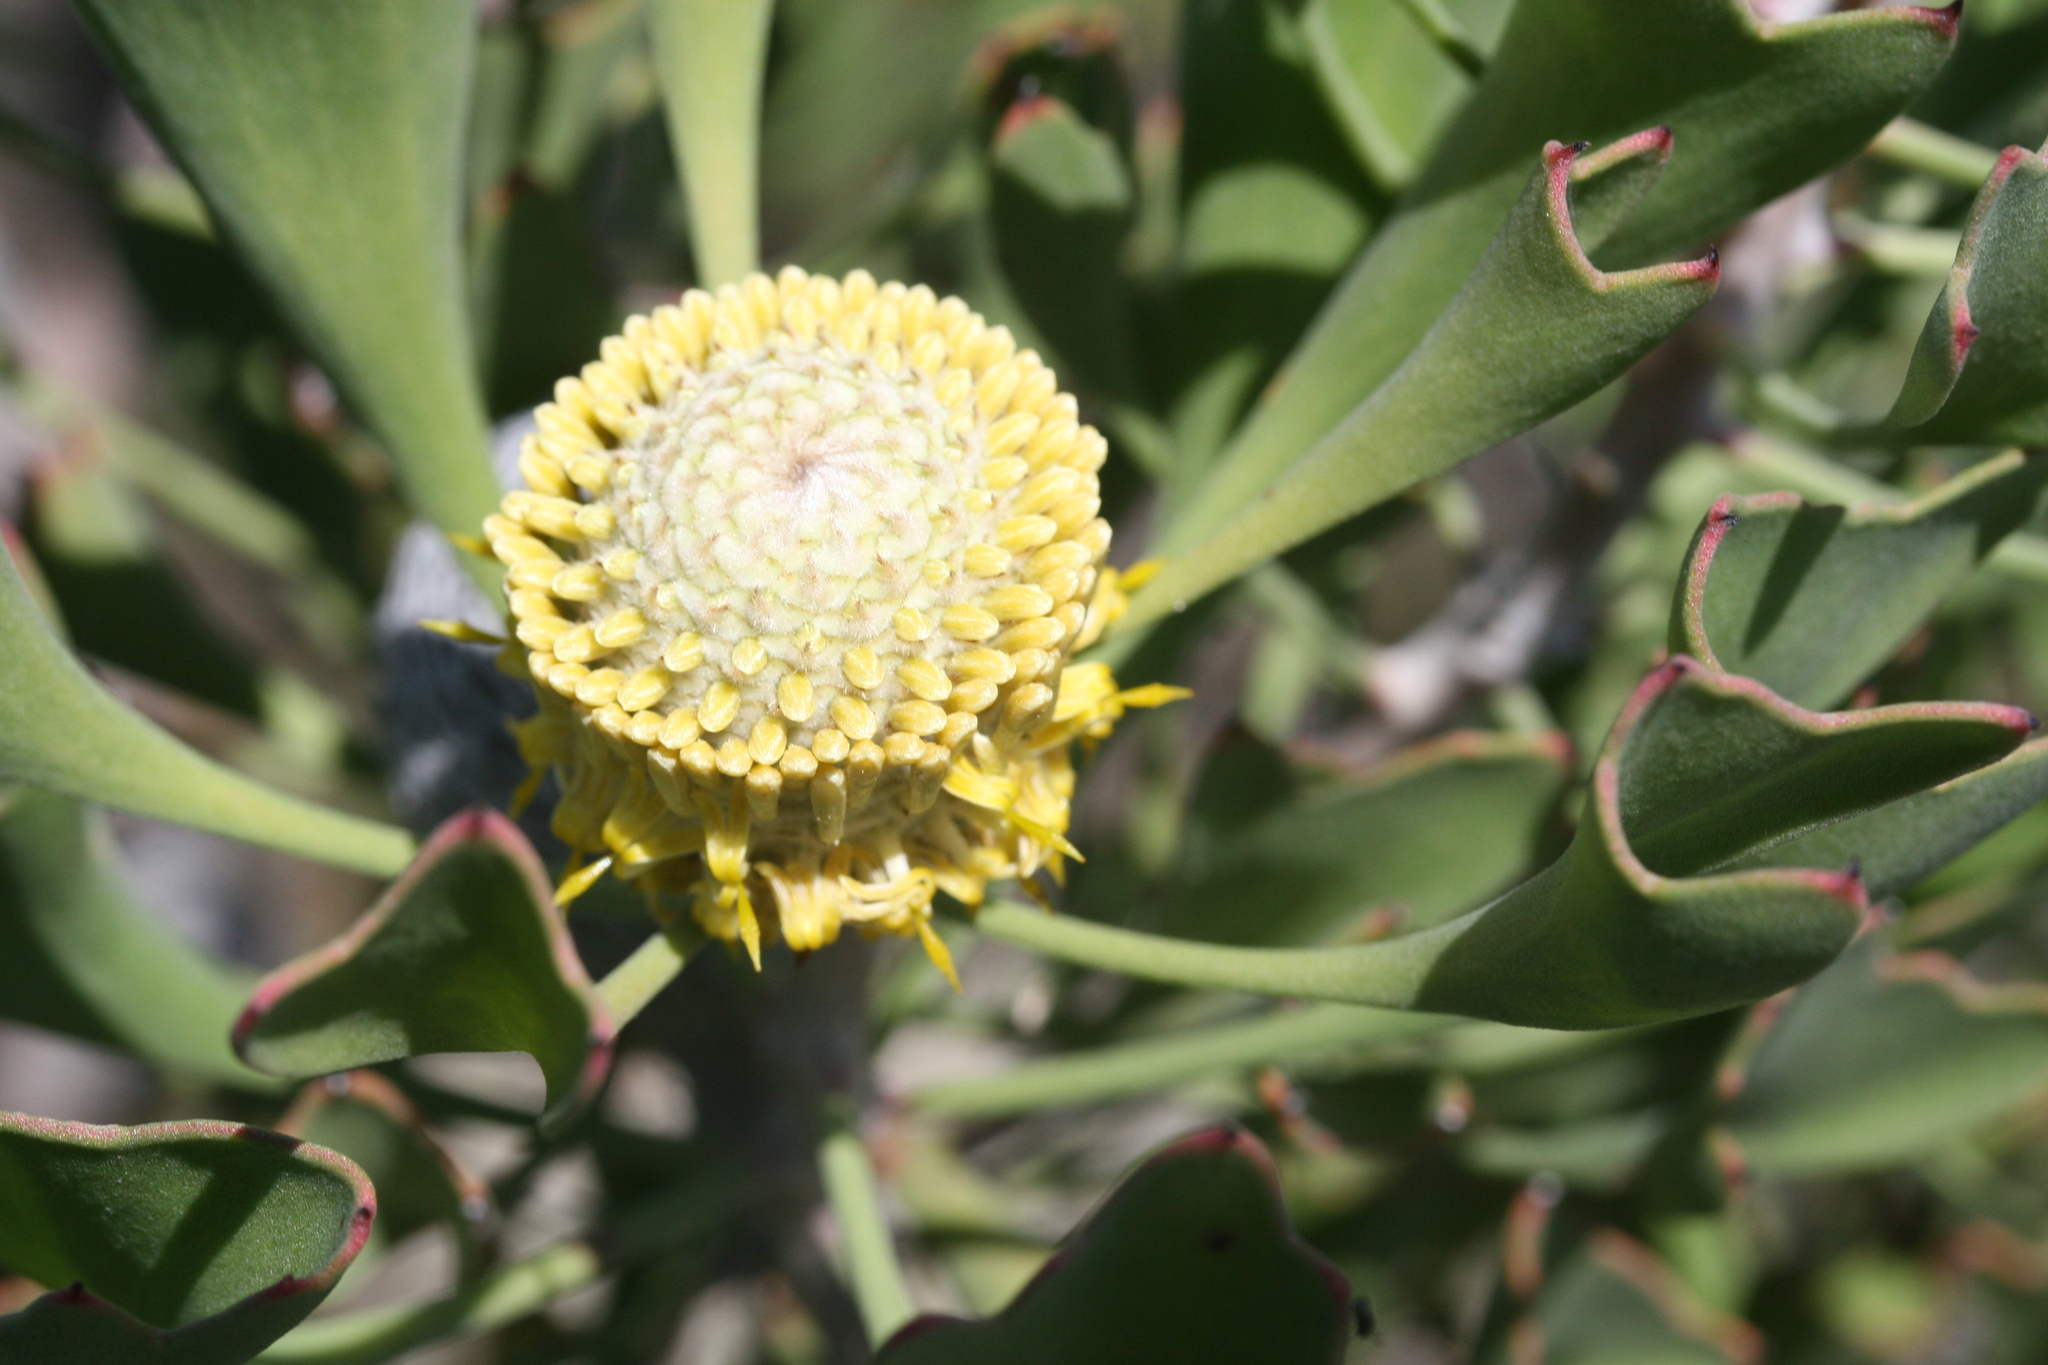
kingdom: Plantae
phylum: Tracheophyta
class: Magnoliopsida
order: Proteales
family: Proteaceae
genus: Isopogon
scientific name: Isopogon trilobus
